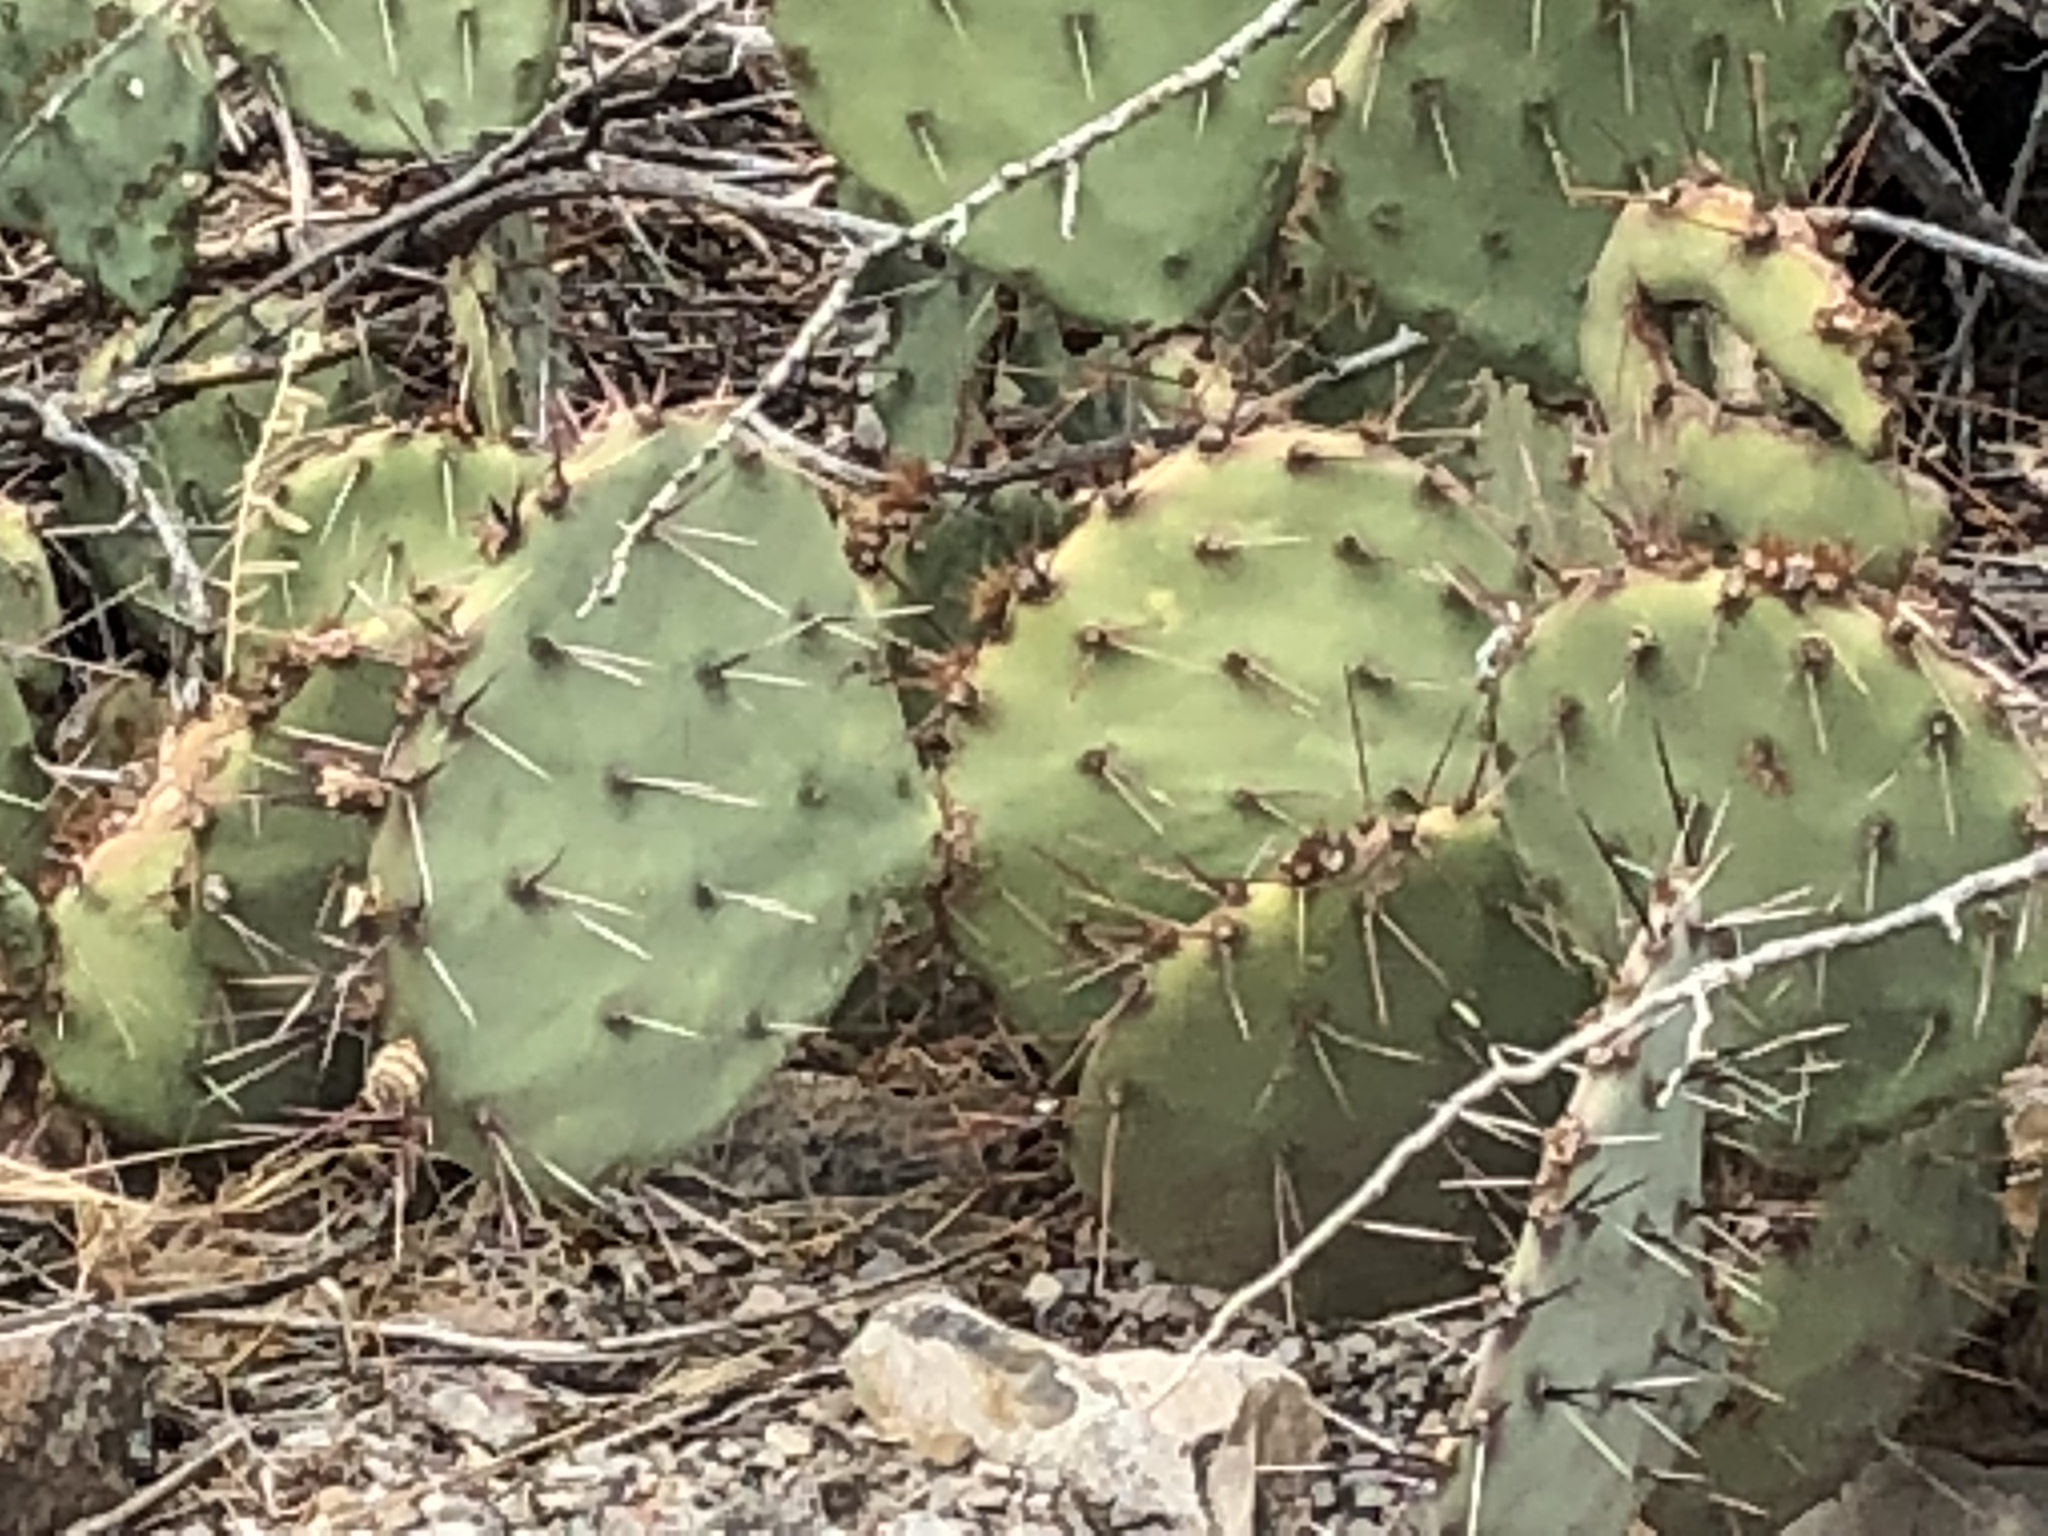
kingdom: Plantae
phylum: Tracheophyta
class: Magnoliopsida
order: Caryophyllales
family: Cactaceae
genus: Opuntia
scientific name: Opuntia engelmannii
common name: Cactus-apple
